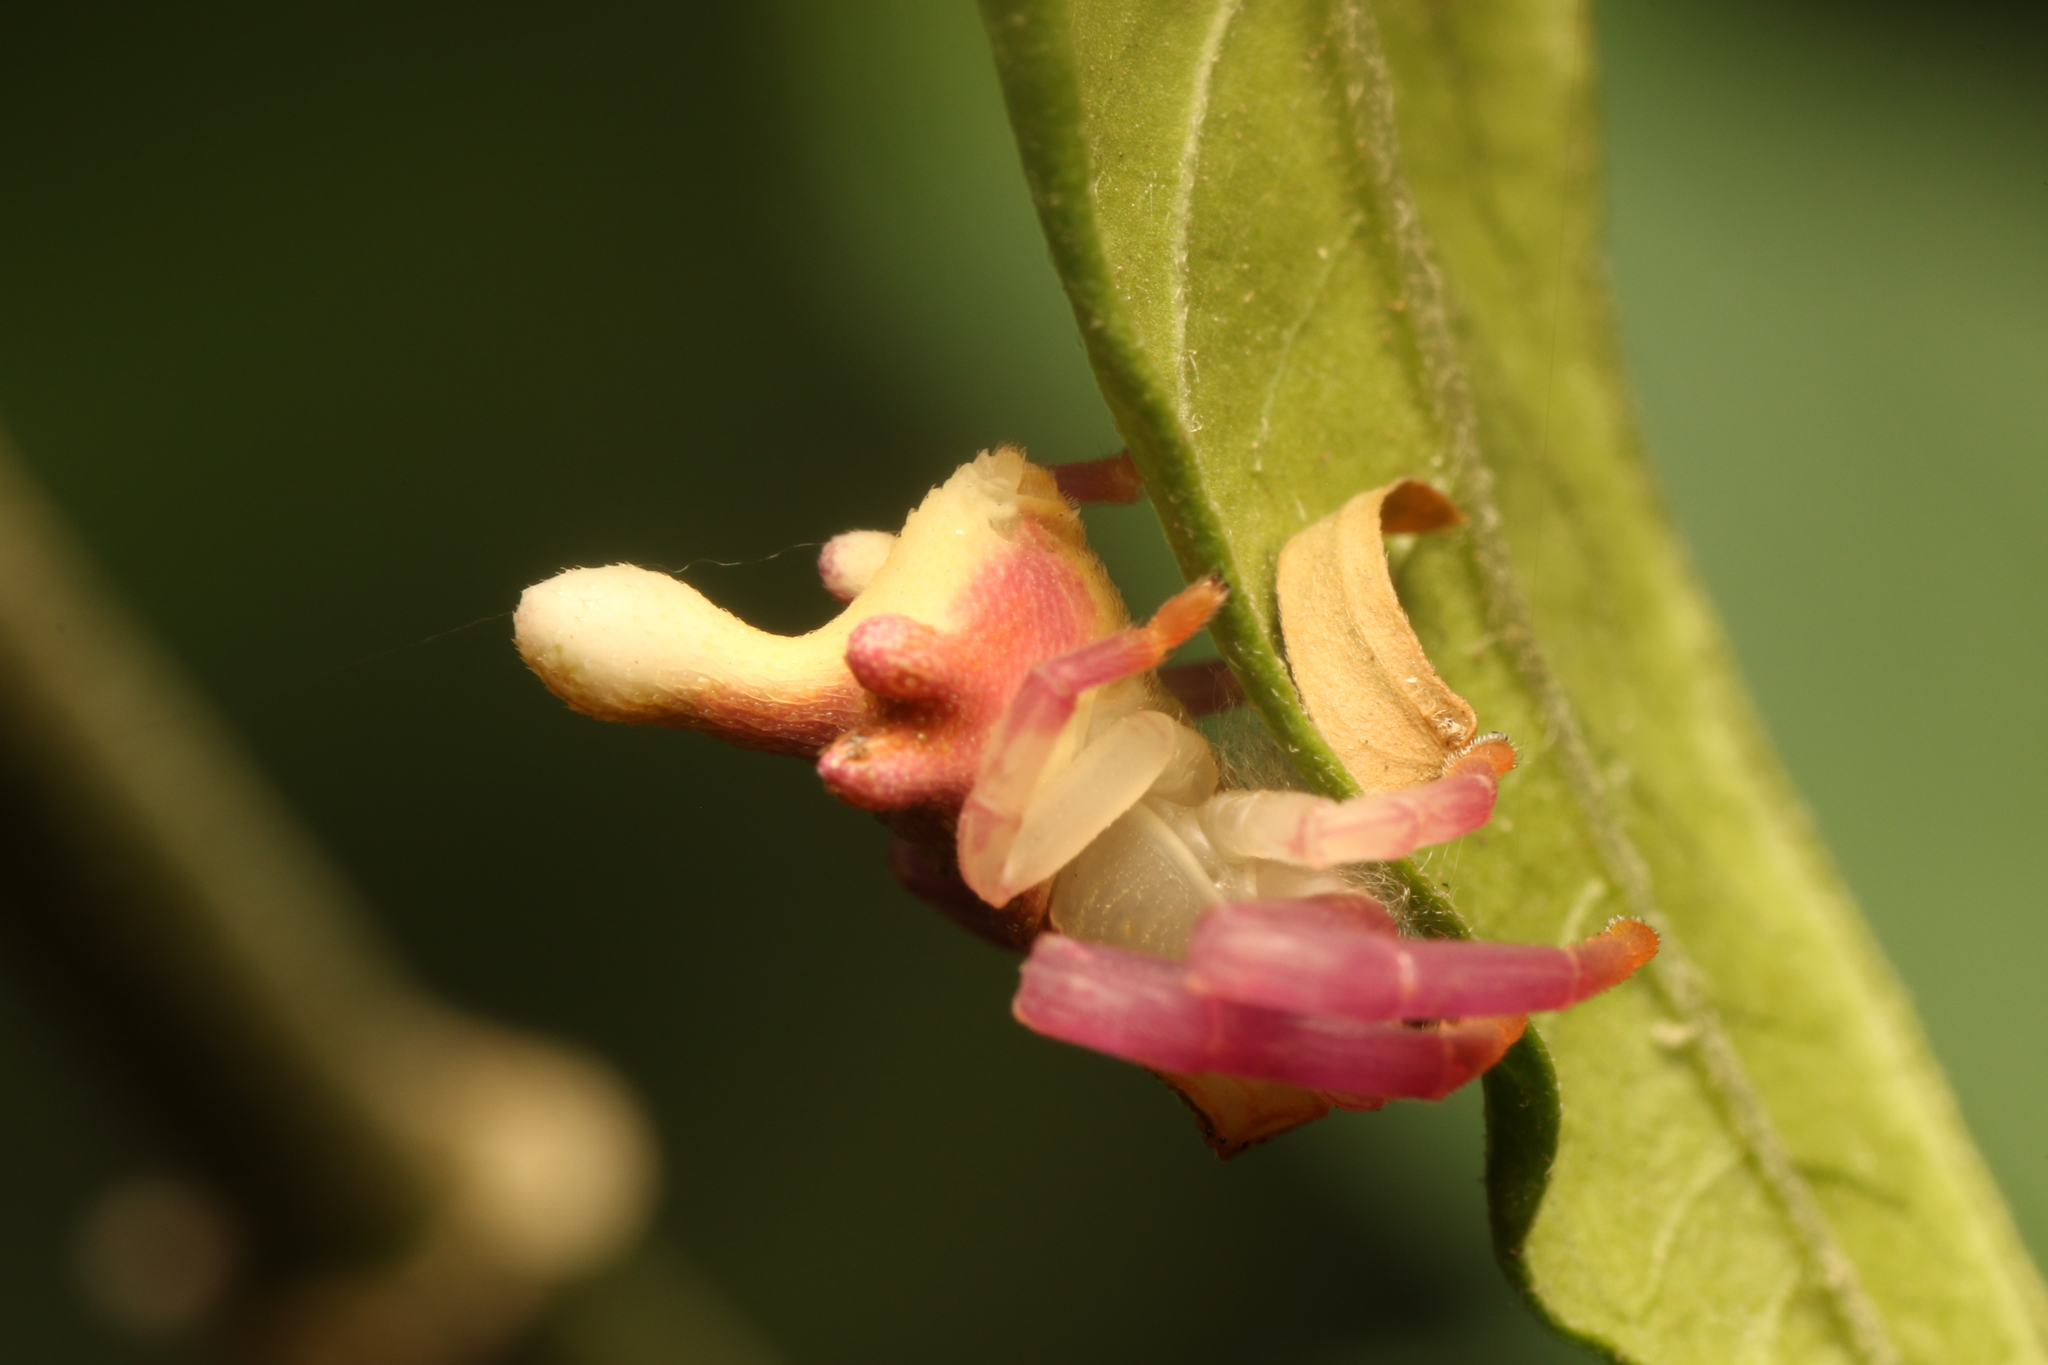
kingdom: Animalia
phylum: Arthropoda
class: Arachnida
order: Araneae
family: Thomisidae
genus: Epicadus
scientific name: Epicadus rubripes
